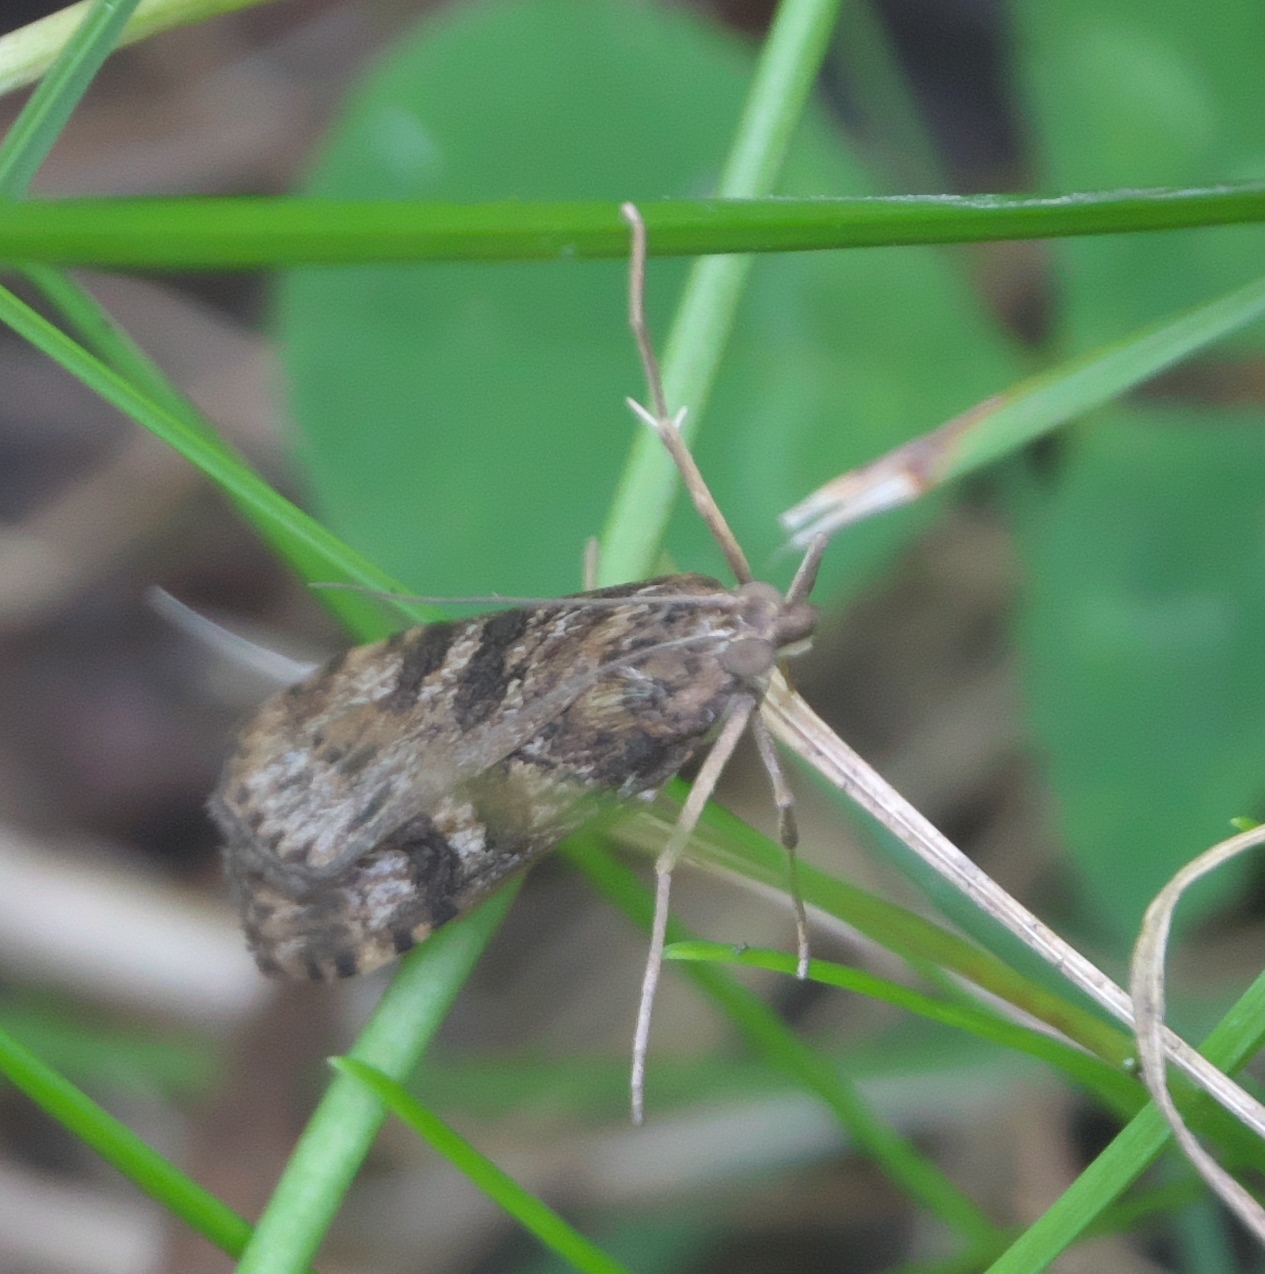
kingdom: Animalia
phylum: Arthropoda
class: Insecta
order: Lepidoptera
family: Crambidae
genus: Nomophila
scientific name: Nomophila nearctica
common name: American rush veneer
